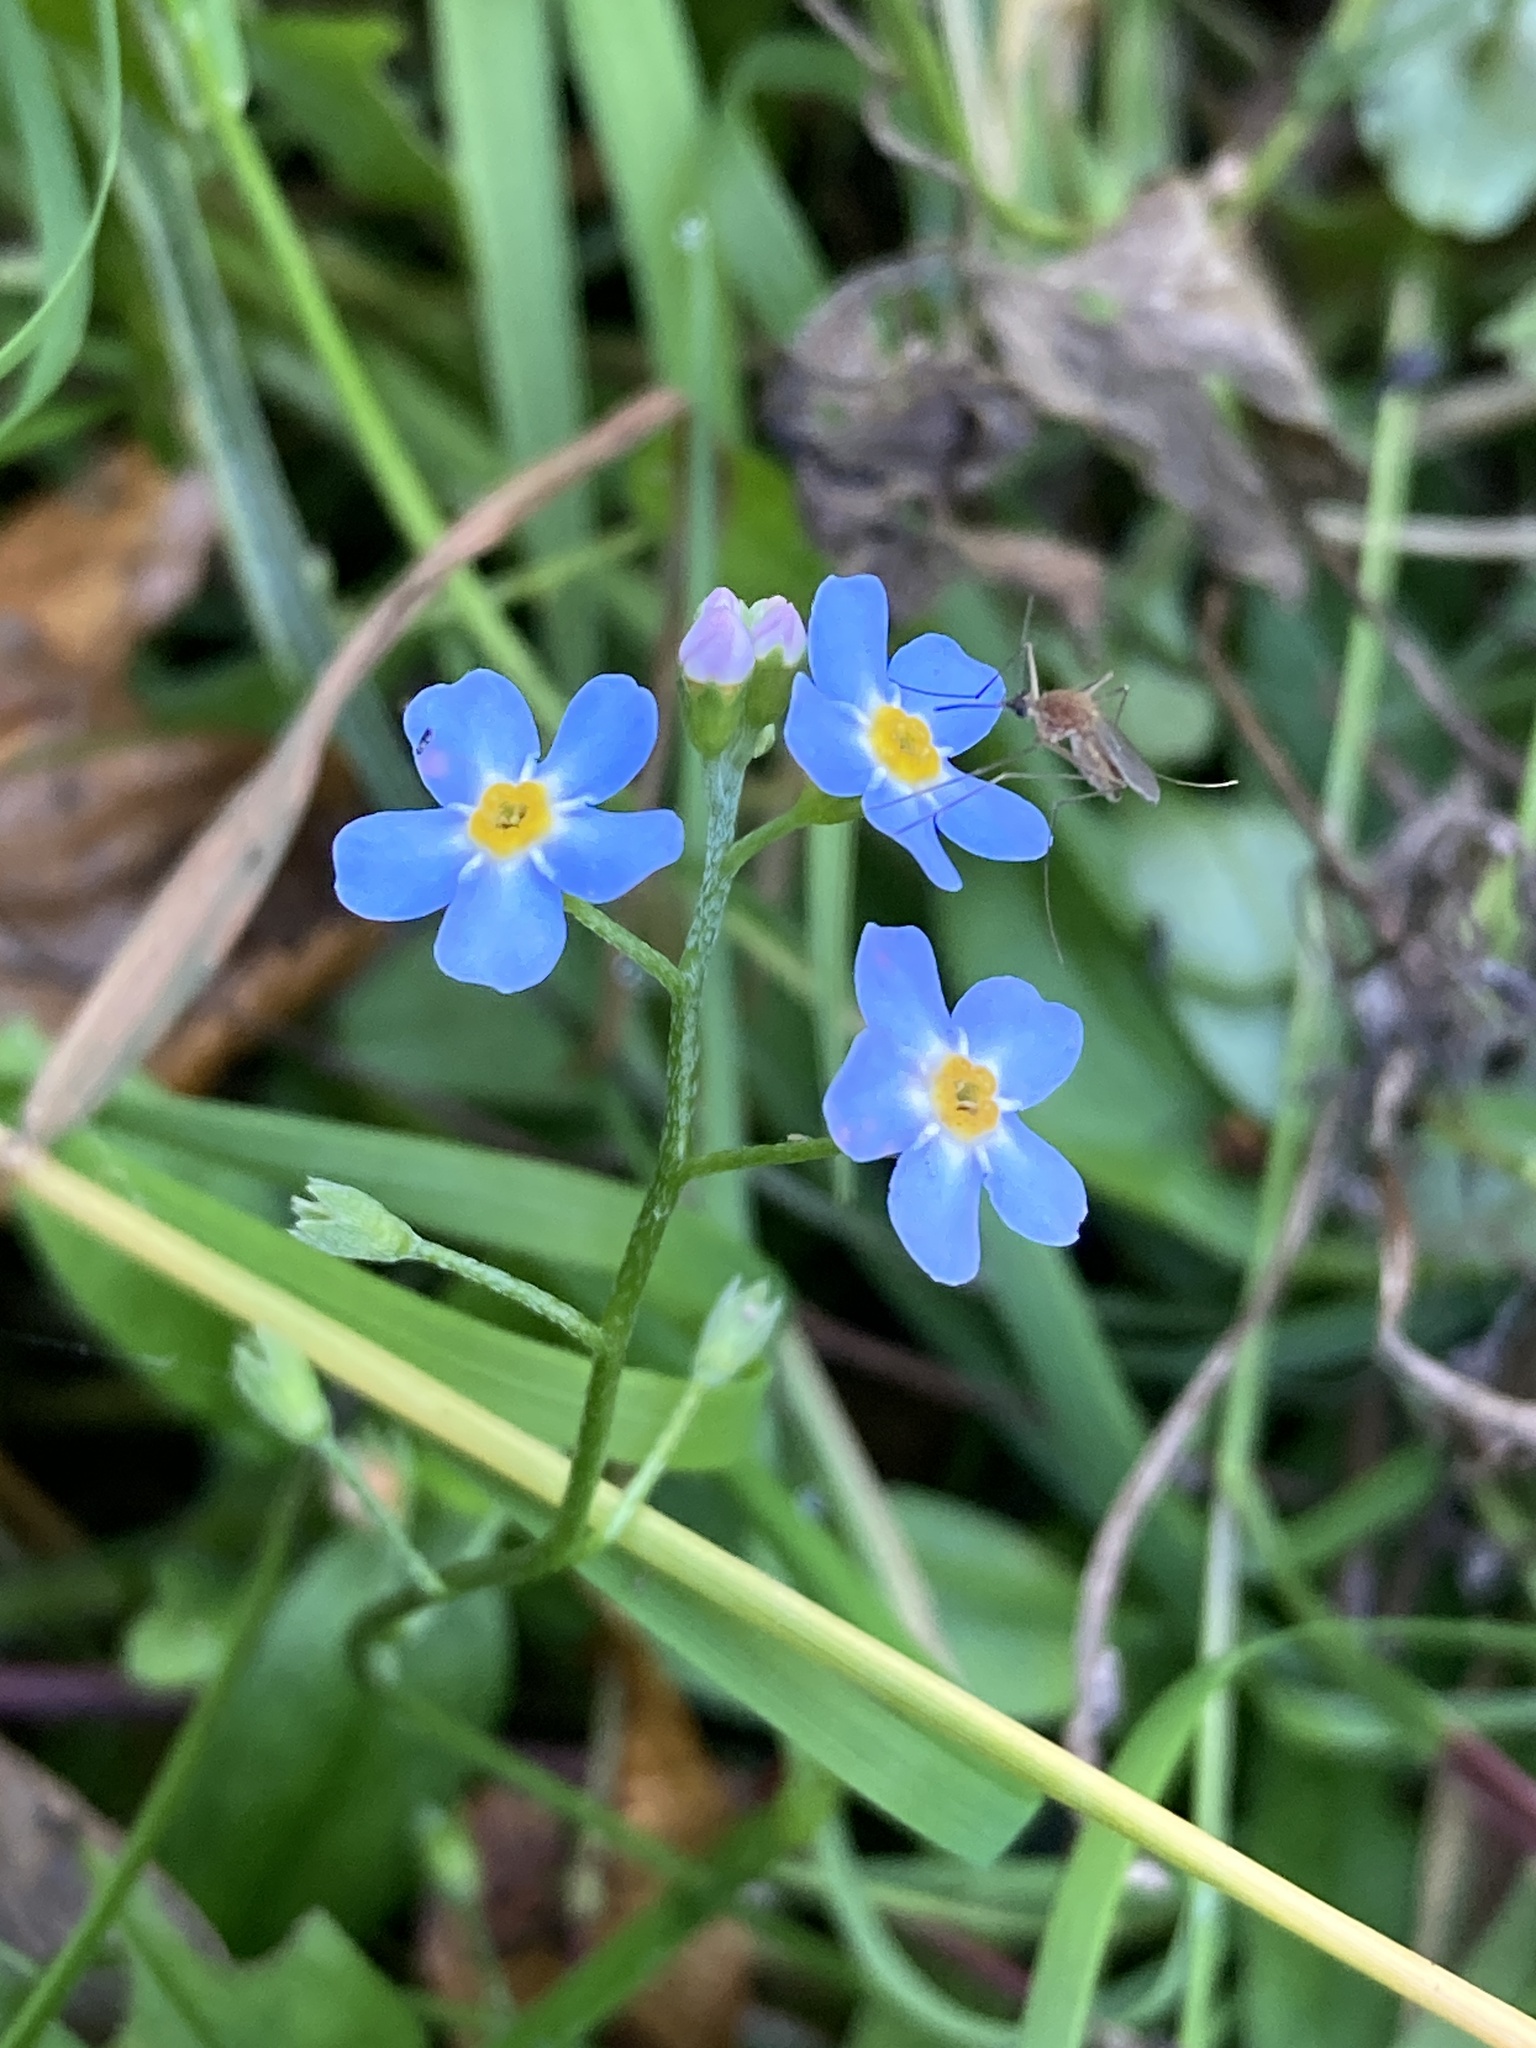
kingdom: Plantae
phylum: Tracheophyta
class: Magnoliopsida
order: Boraginales
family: Boraginaceae
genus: Myosotis
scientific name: Myosotis scorpioides
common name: Water forget-me-not
